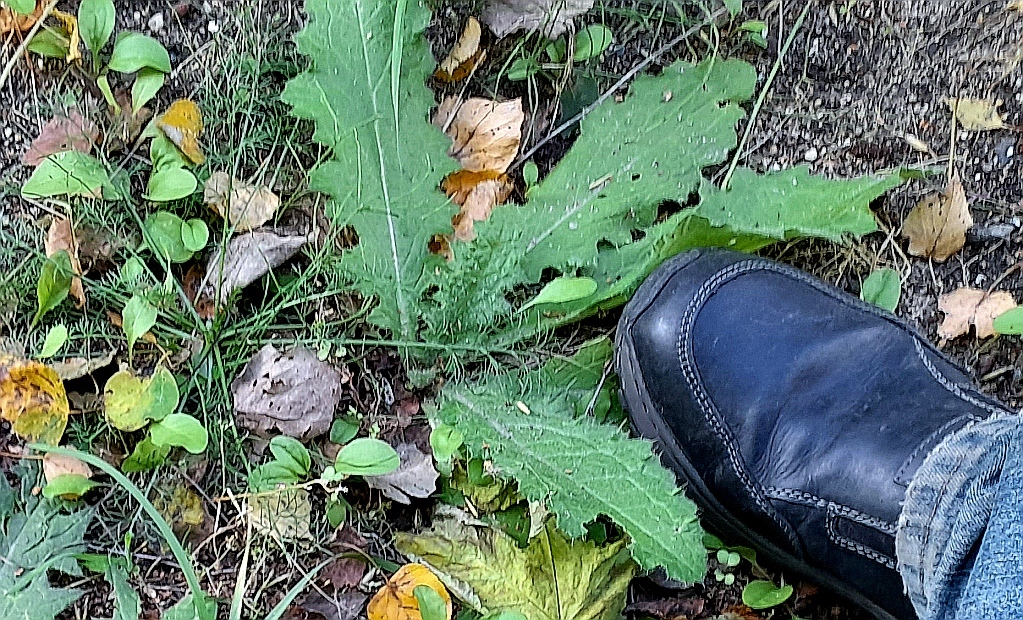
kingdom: Plantae
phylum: Tracheophyta
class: Magnoliopsida
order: Asterales
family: Asteraceae
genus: Cirsium
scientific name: Cirsium vulgare
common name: Bull thistle
